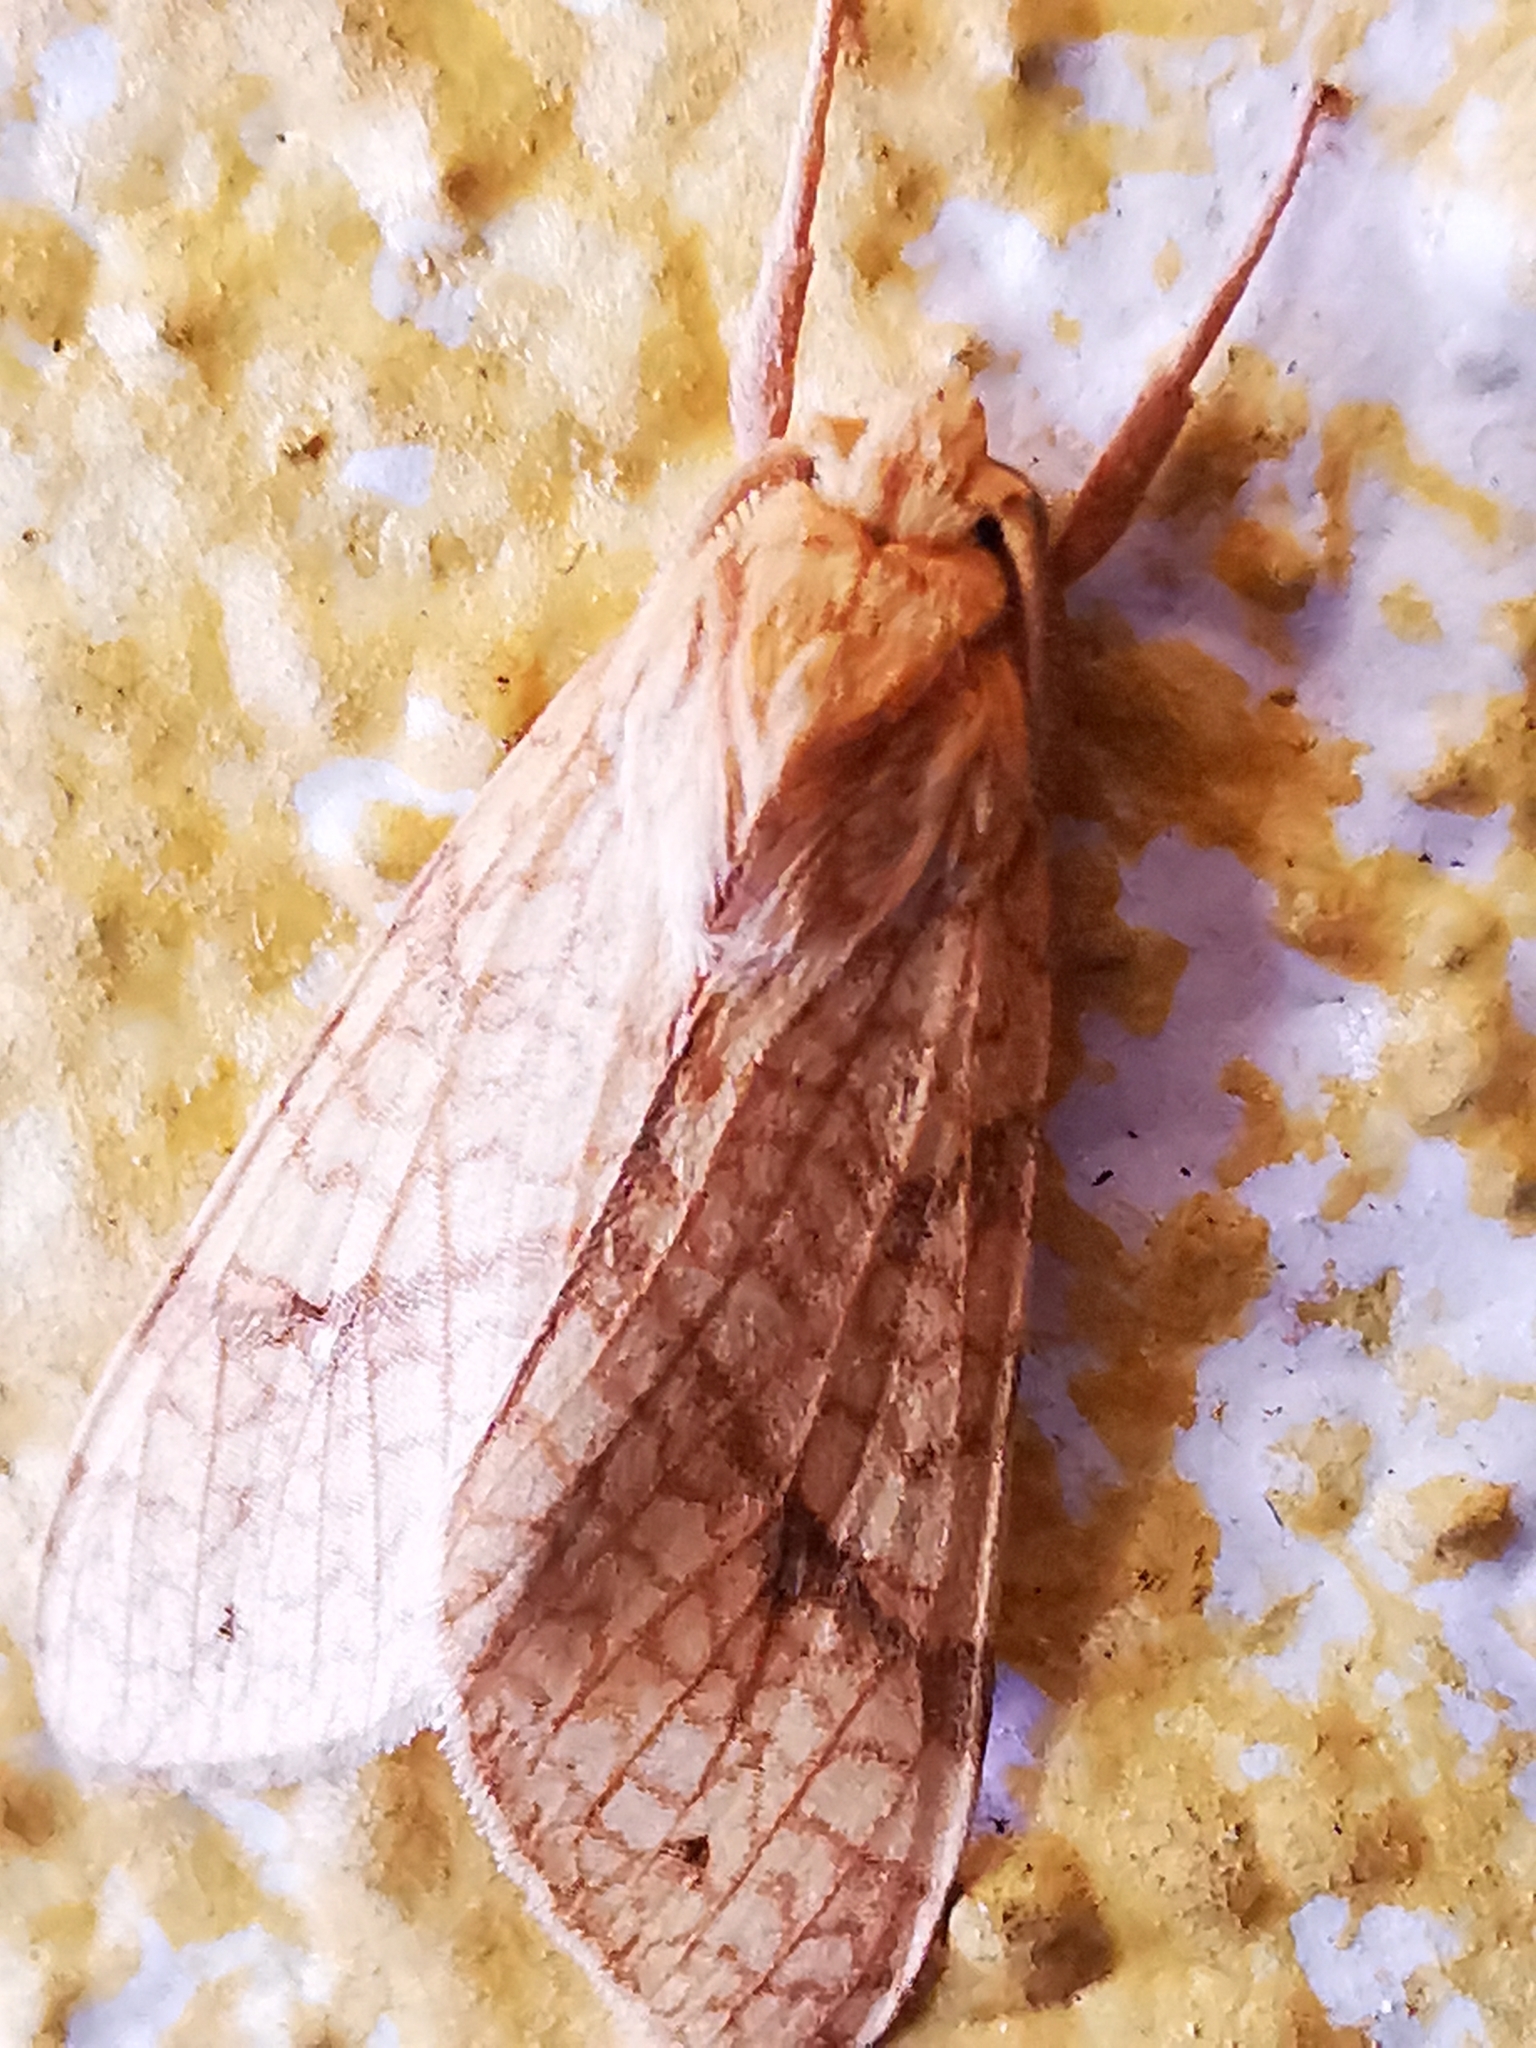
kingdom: Animalia
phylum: Arthropoda
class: Insecta
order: Lepidoptera
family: Erebidae
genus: Lophocampa
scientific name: Lophocampa annulosa
